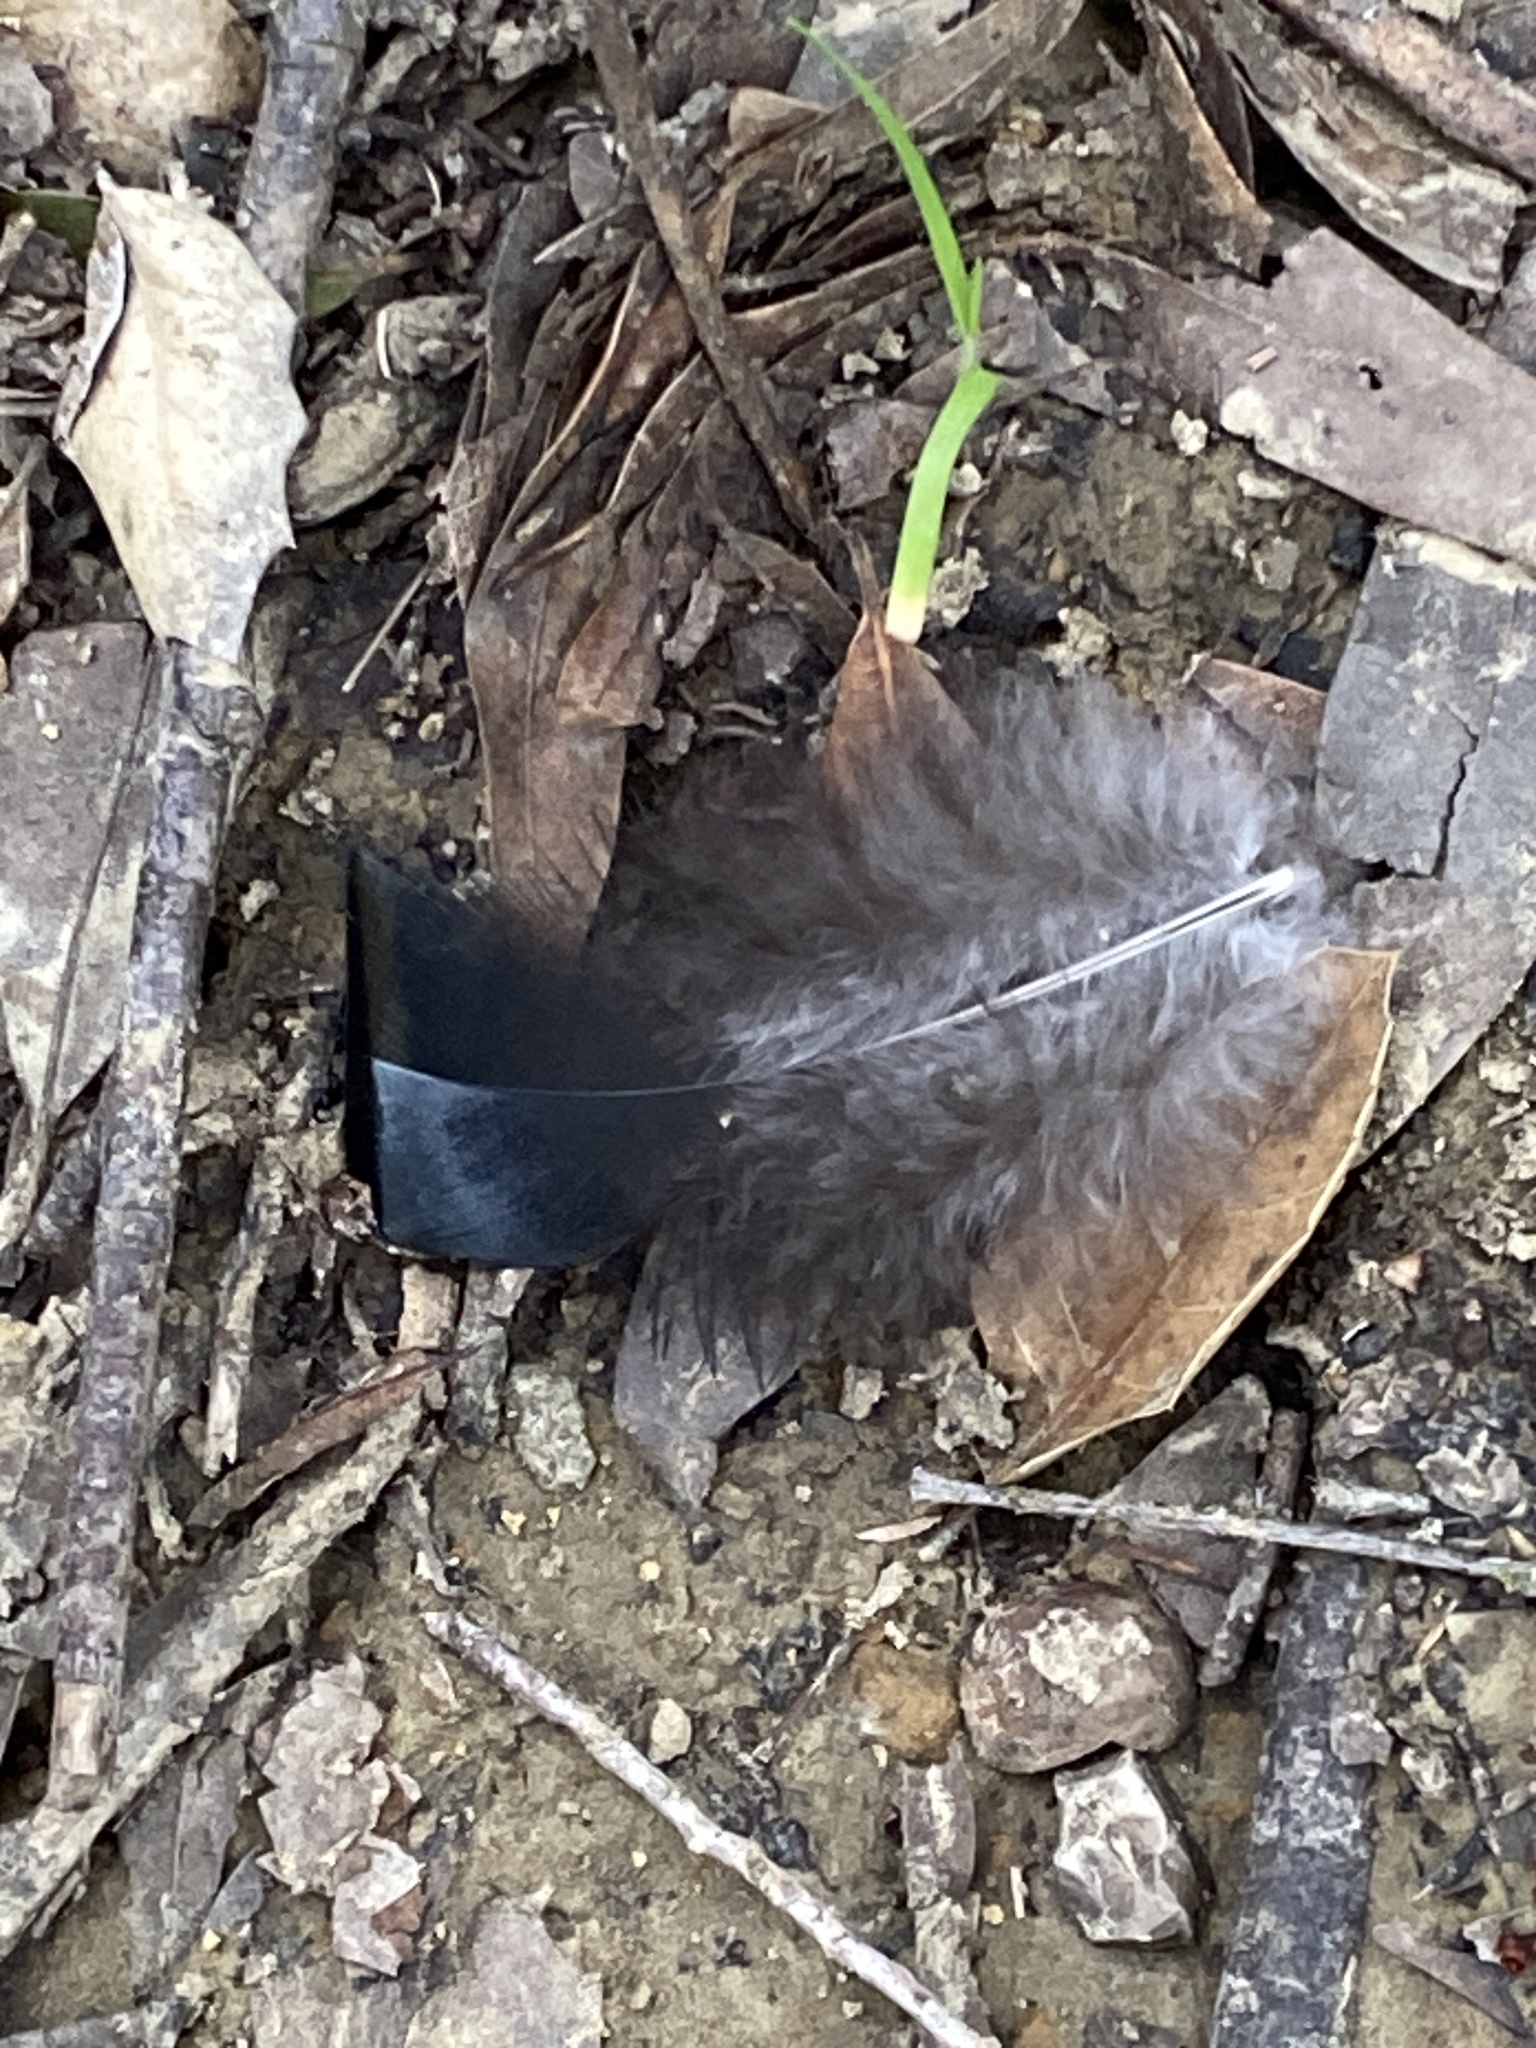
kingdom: Animalia
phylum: Chordata
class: Aves
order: Galliformes
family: Phasianidae
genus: Meleagris
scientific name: Meleagris gallopavo
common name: Wild turkey
